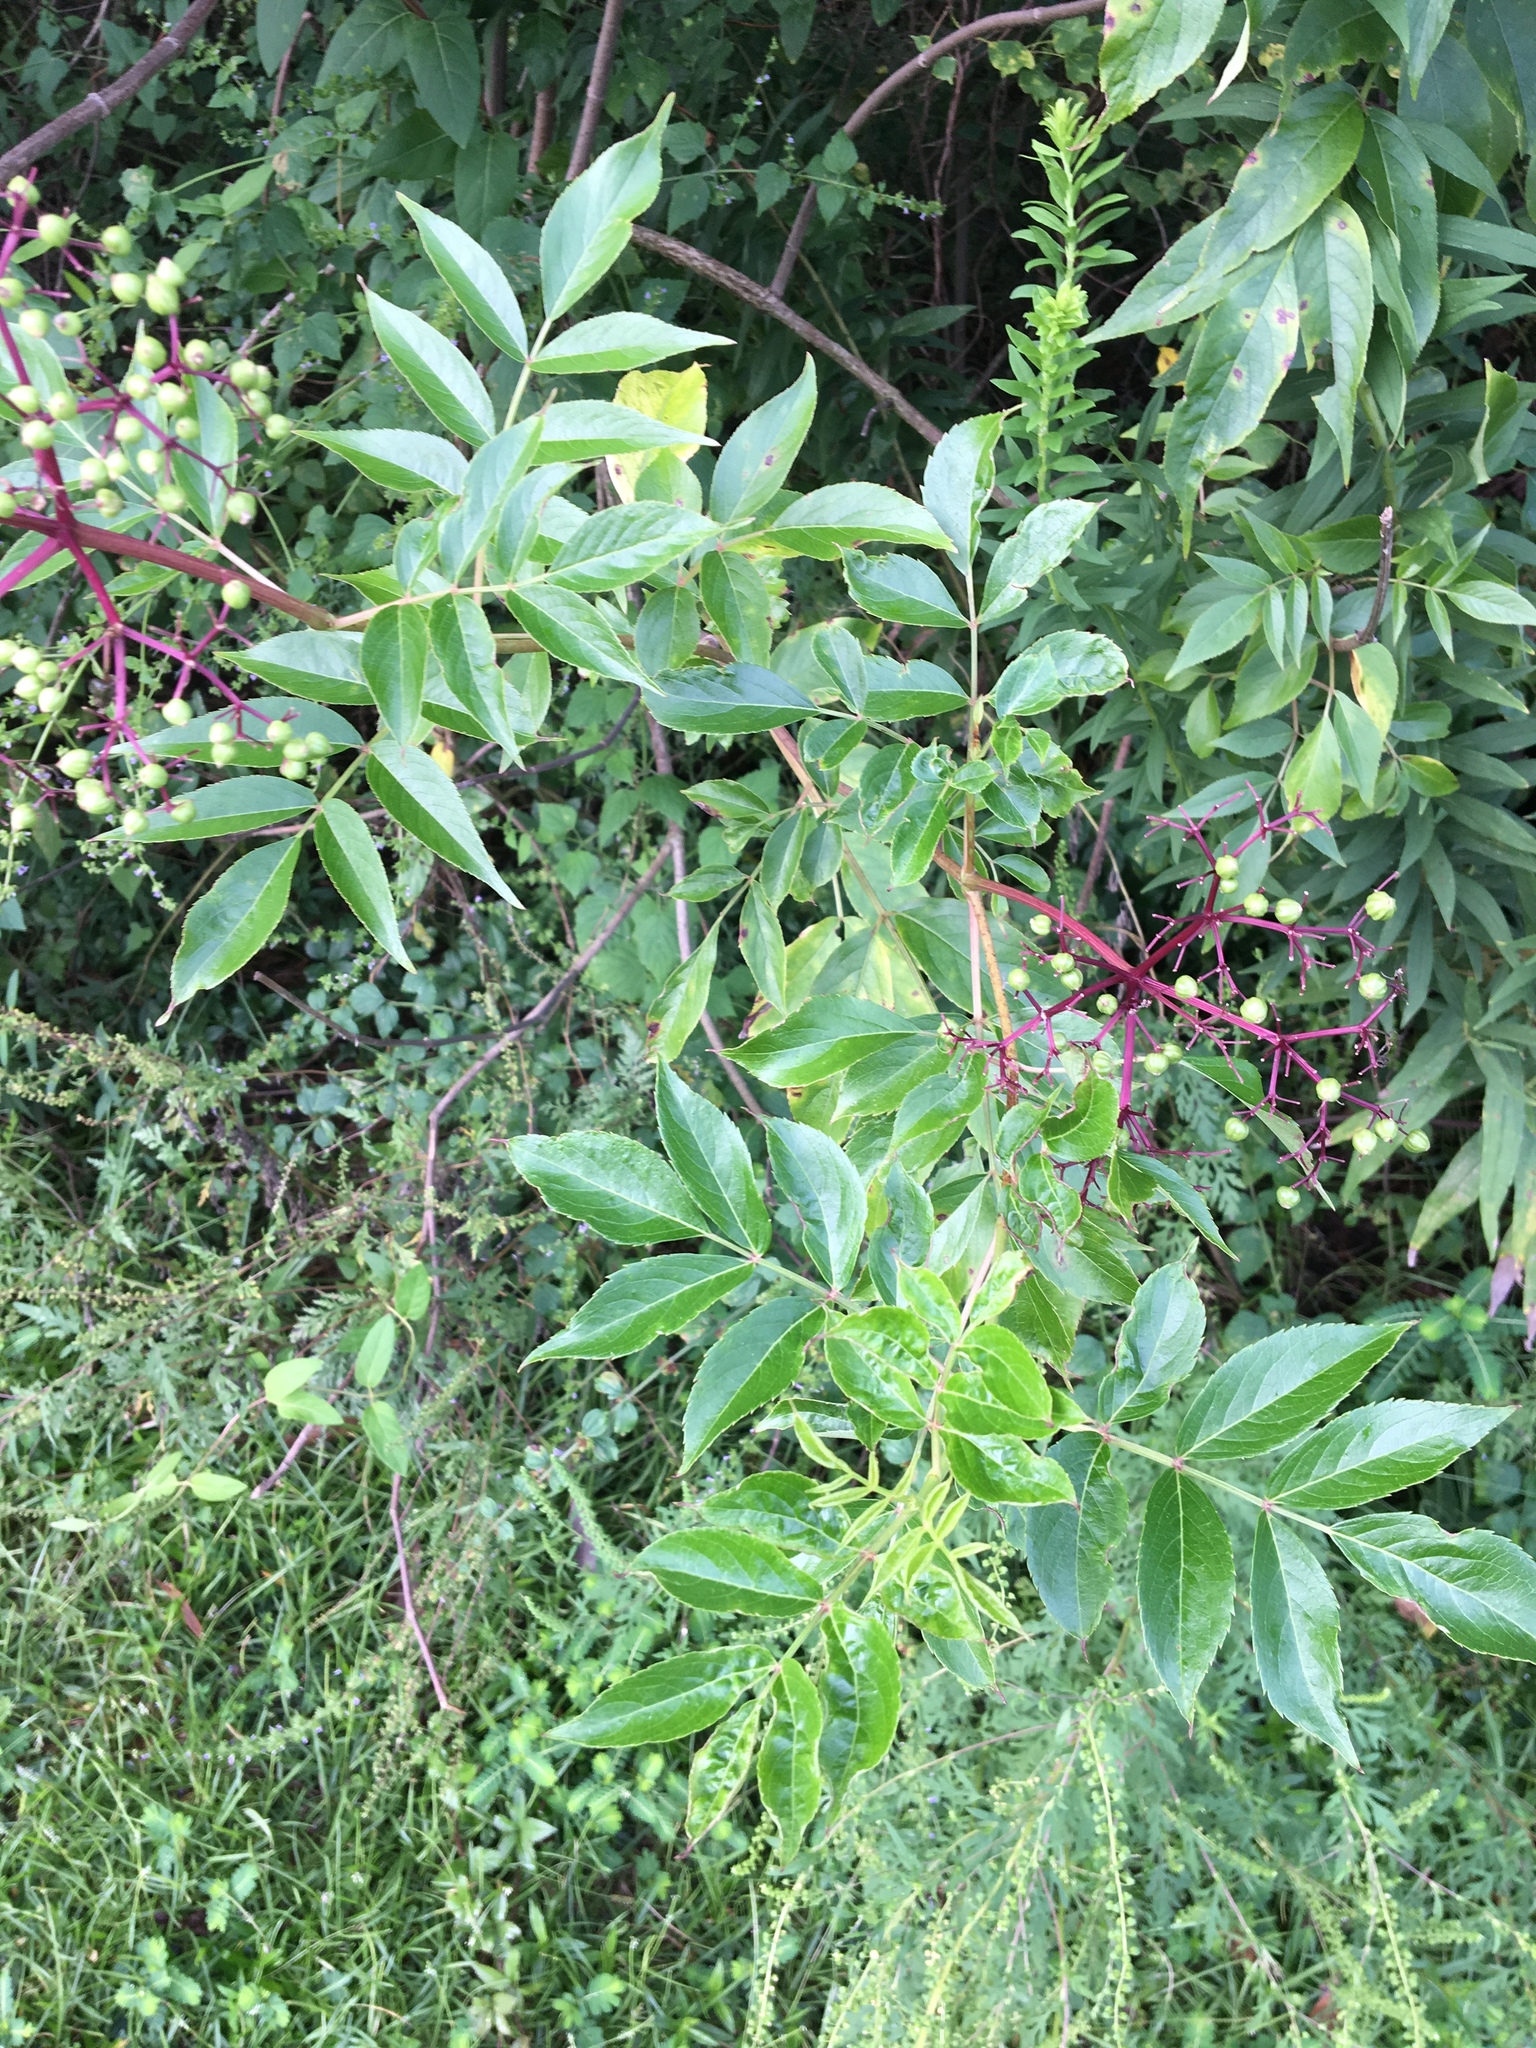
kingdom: Plantae
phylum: Tracheophyta
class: Magnoliopsida
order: Dipsacales
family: Viburnaceae
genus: Sambucus
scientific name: Sambucus canadensis
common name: American elder
